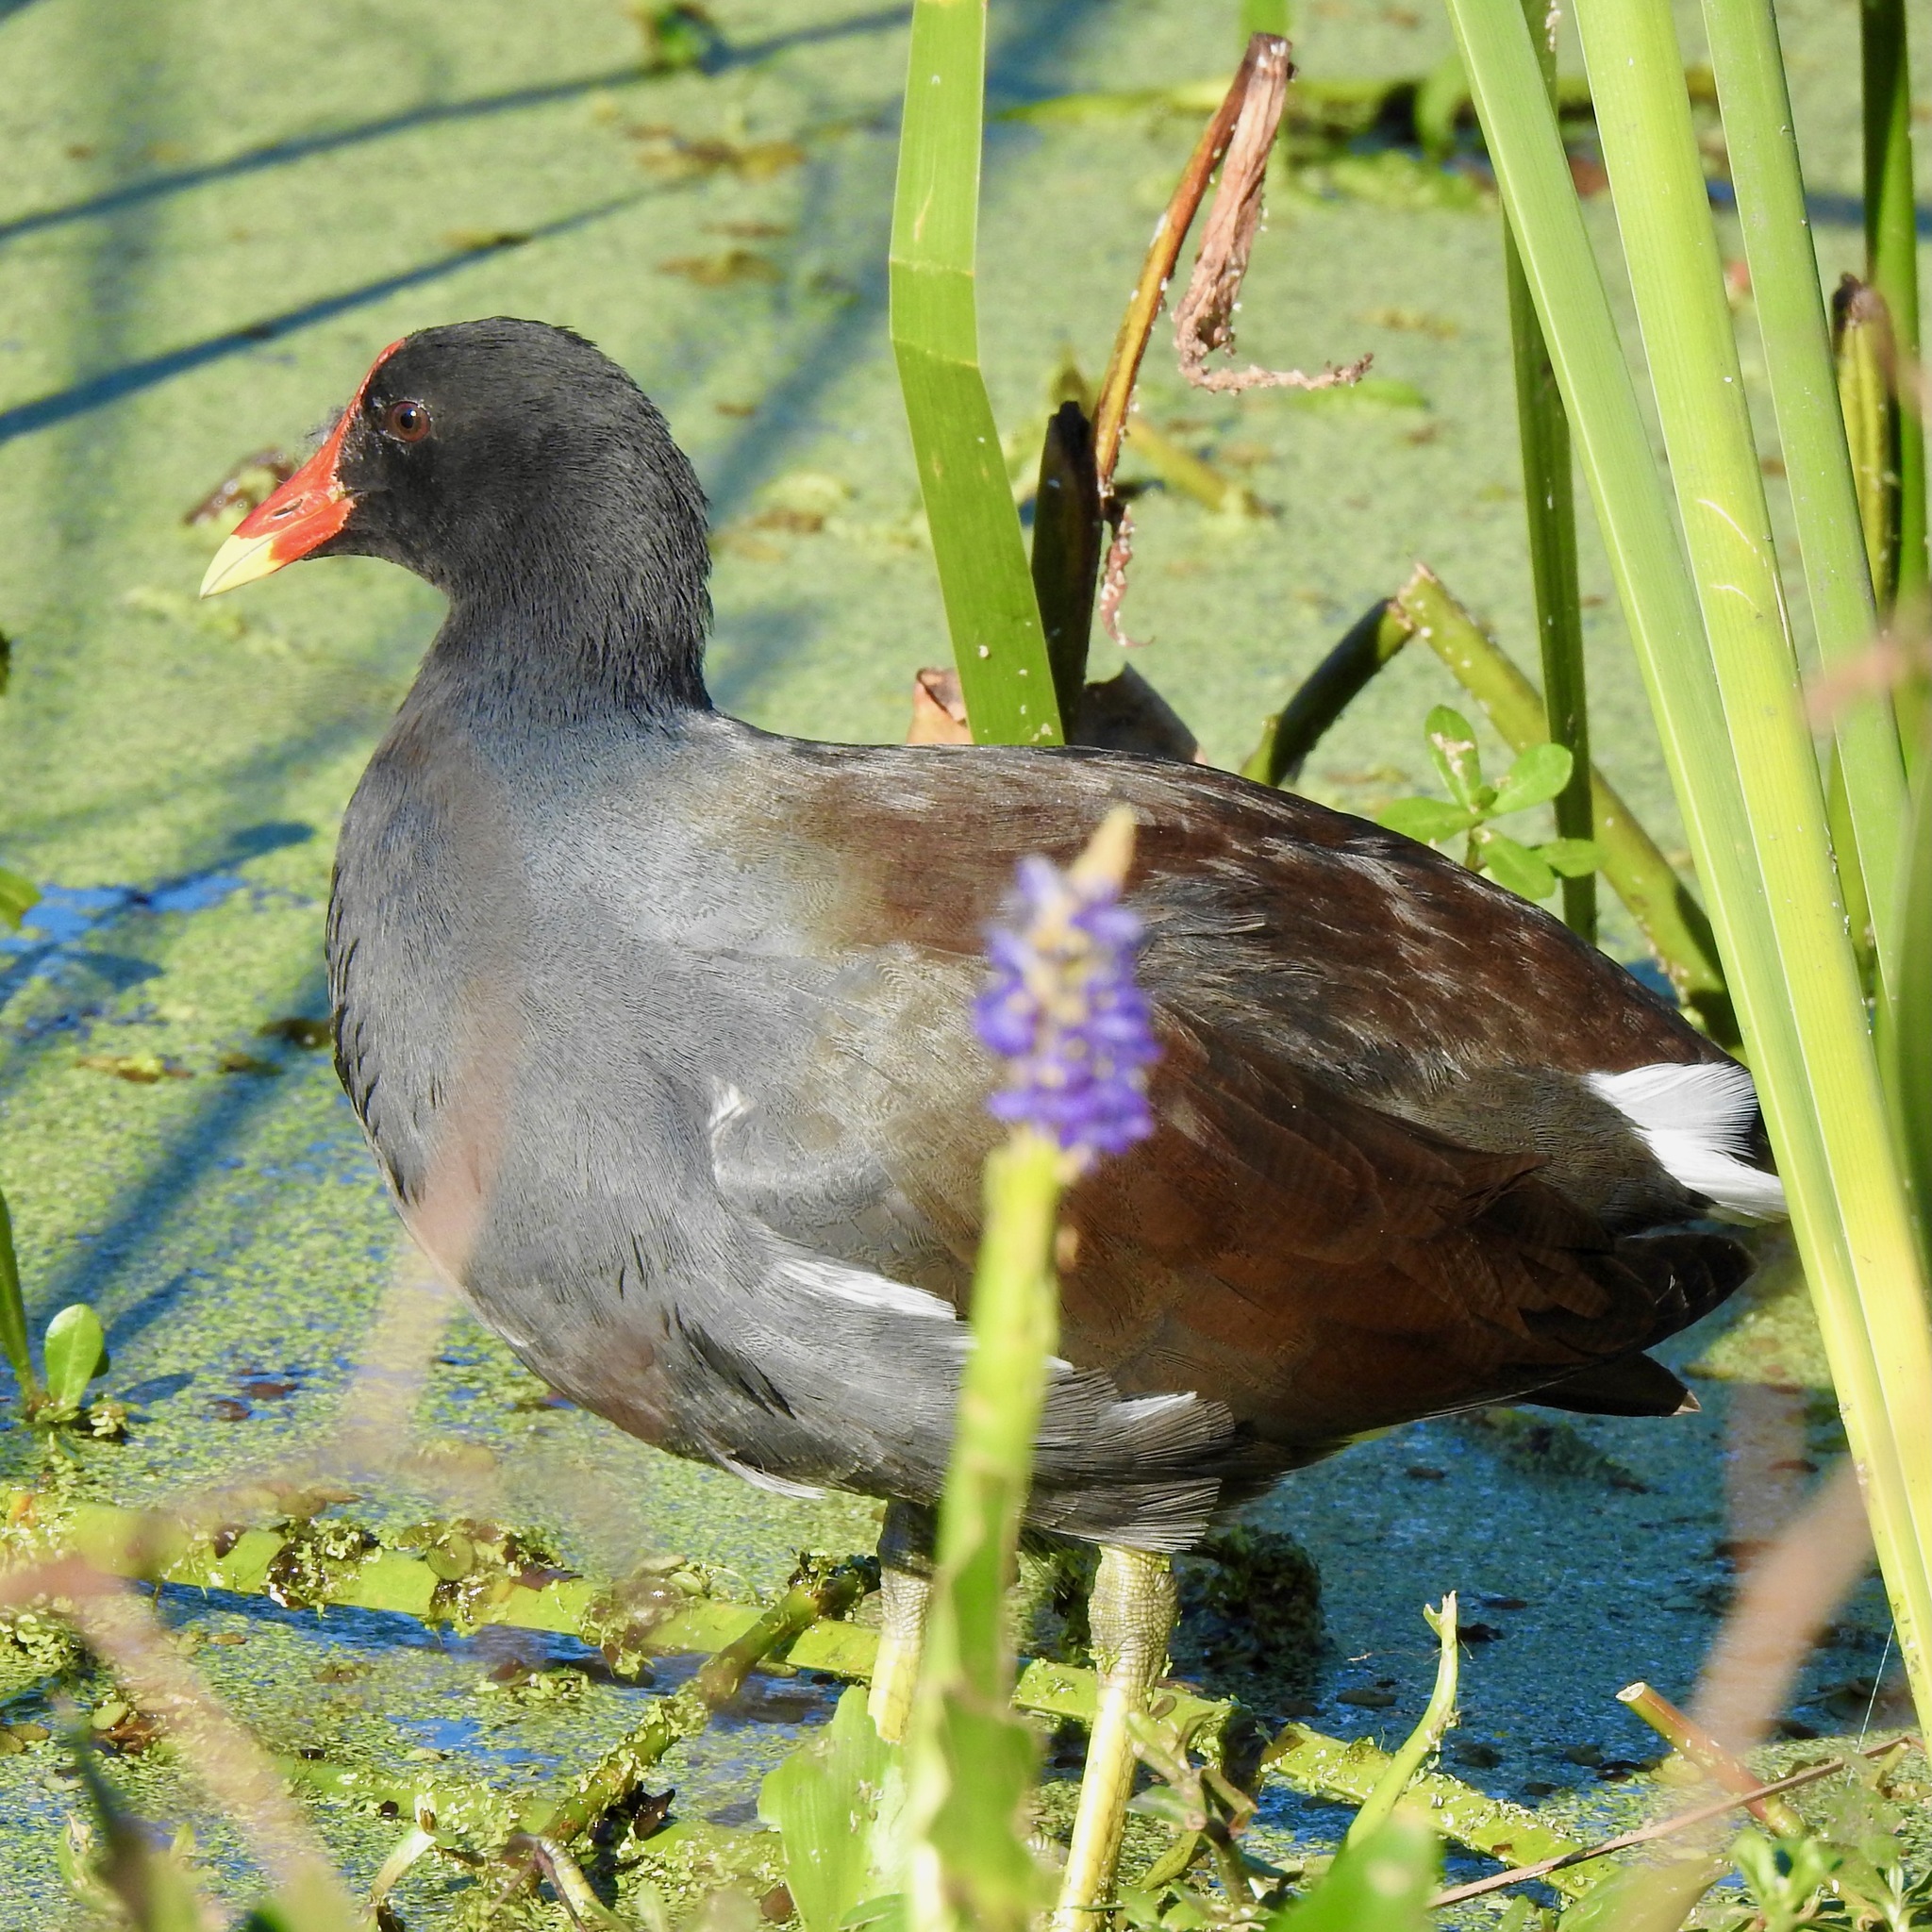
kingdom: Animalia
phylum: Chordata
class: Aves
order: Gruiformes
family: Rallidae
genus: Gallinula
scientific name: Gallinula chloropus
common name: Common moorhen
